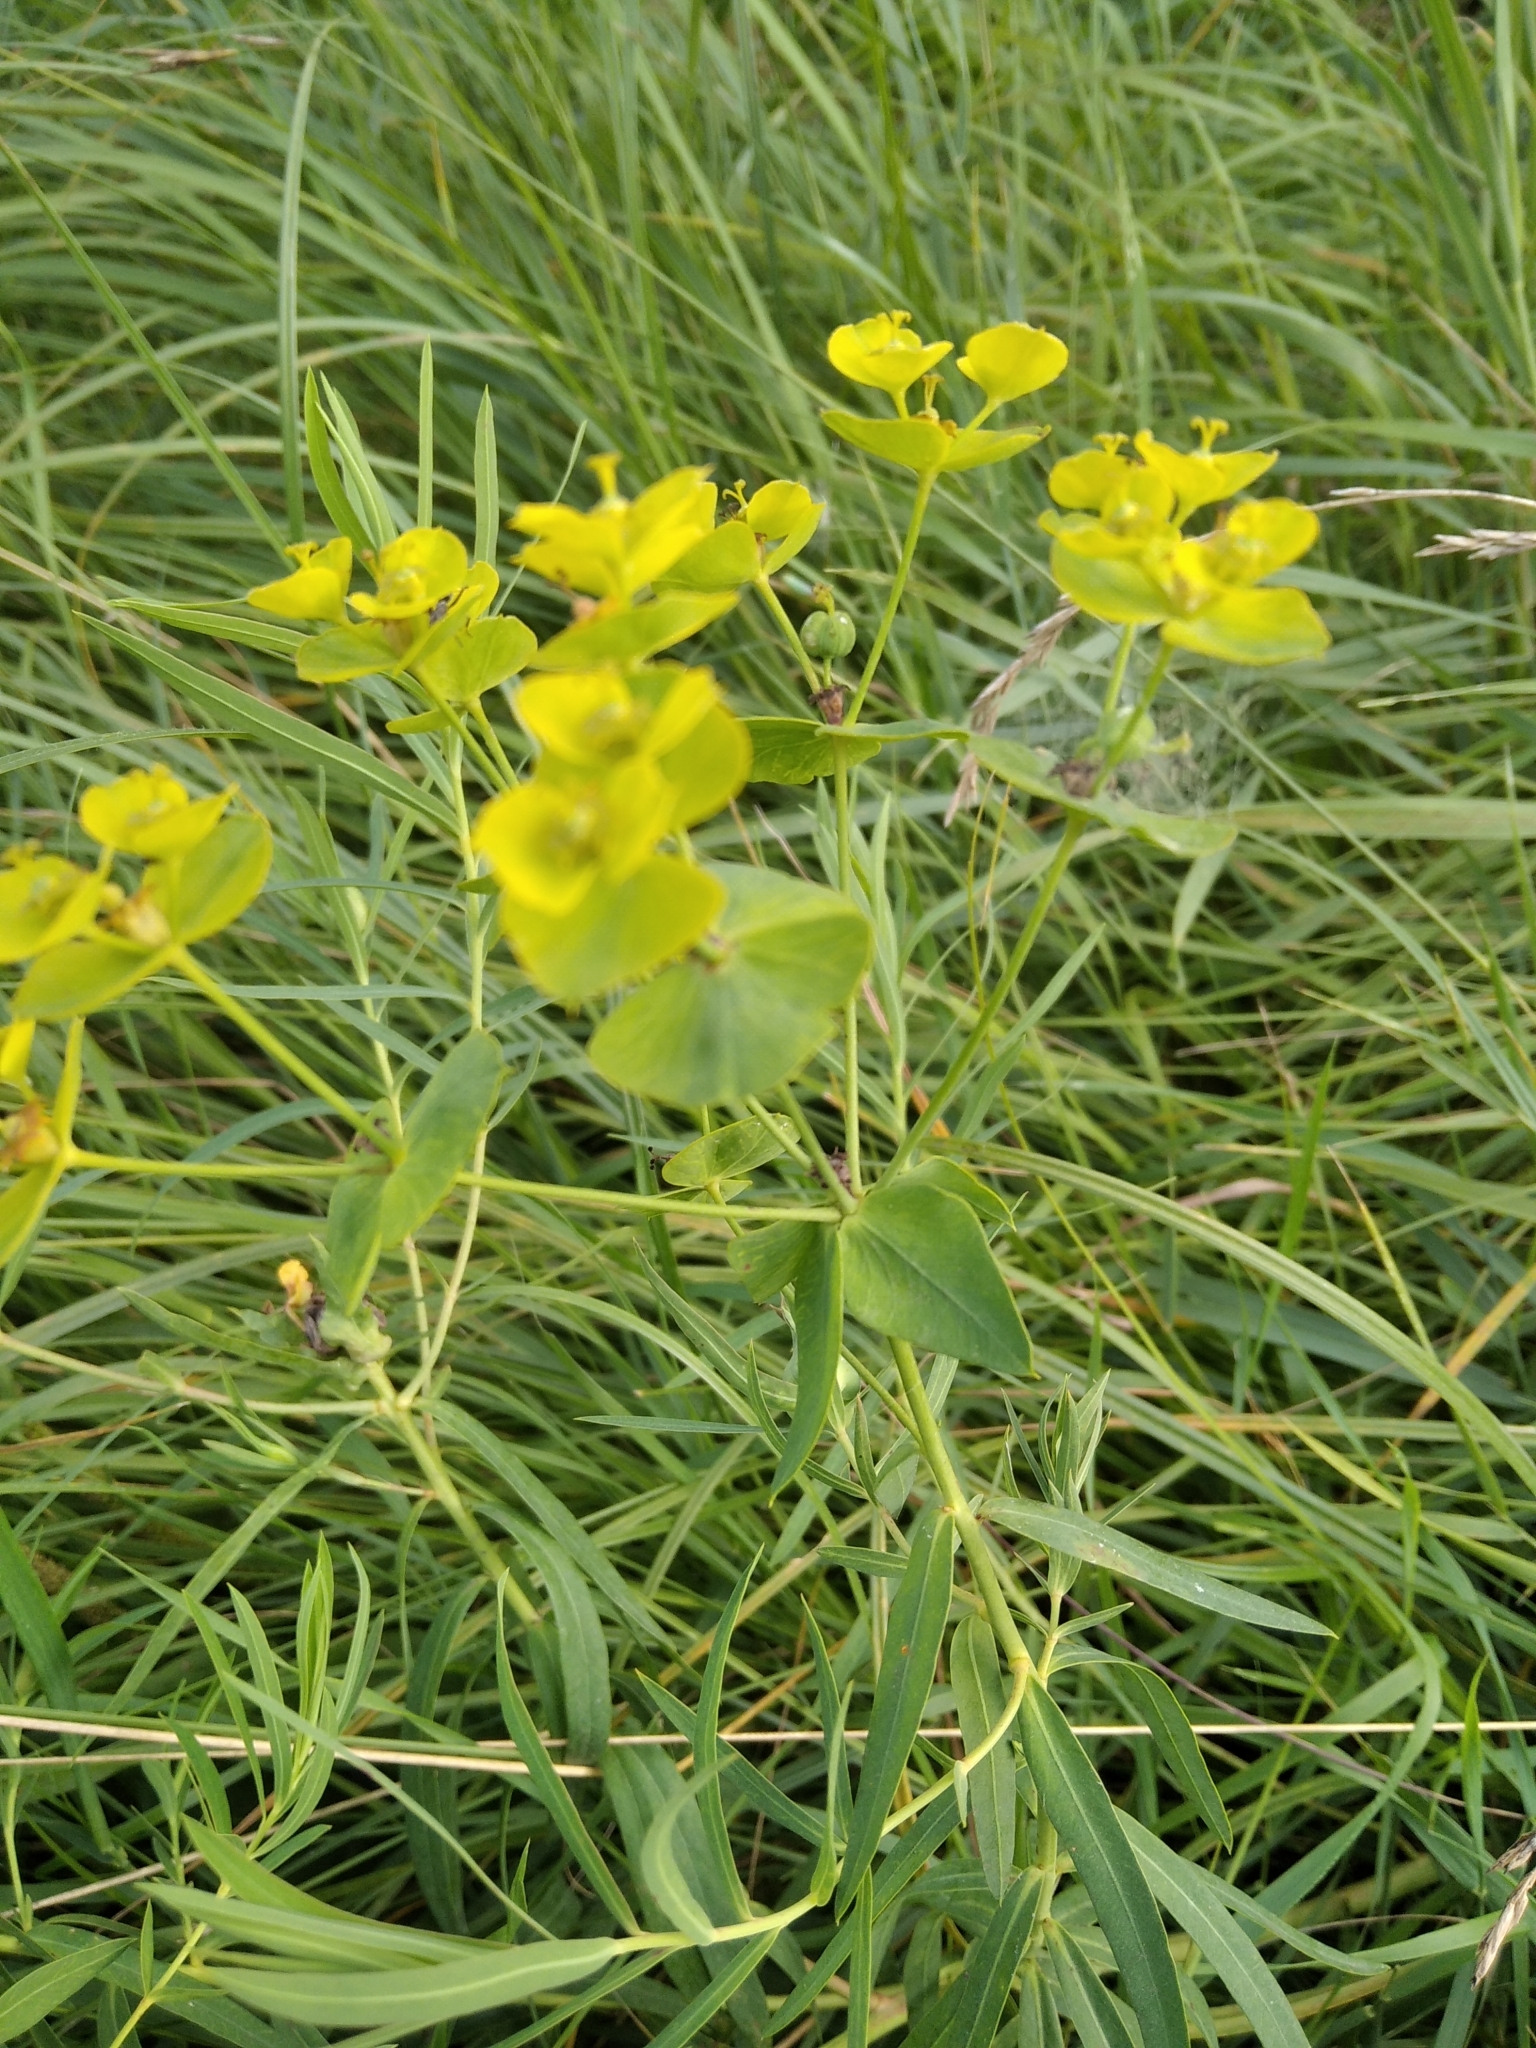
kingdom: Plantae
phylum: Tracheophyta
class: Magnoliopsida
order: Malpighiales
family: Euphorbiaceae
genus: Euphorbia
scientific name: Euphorbia virgata
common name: Leafy spurge
